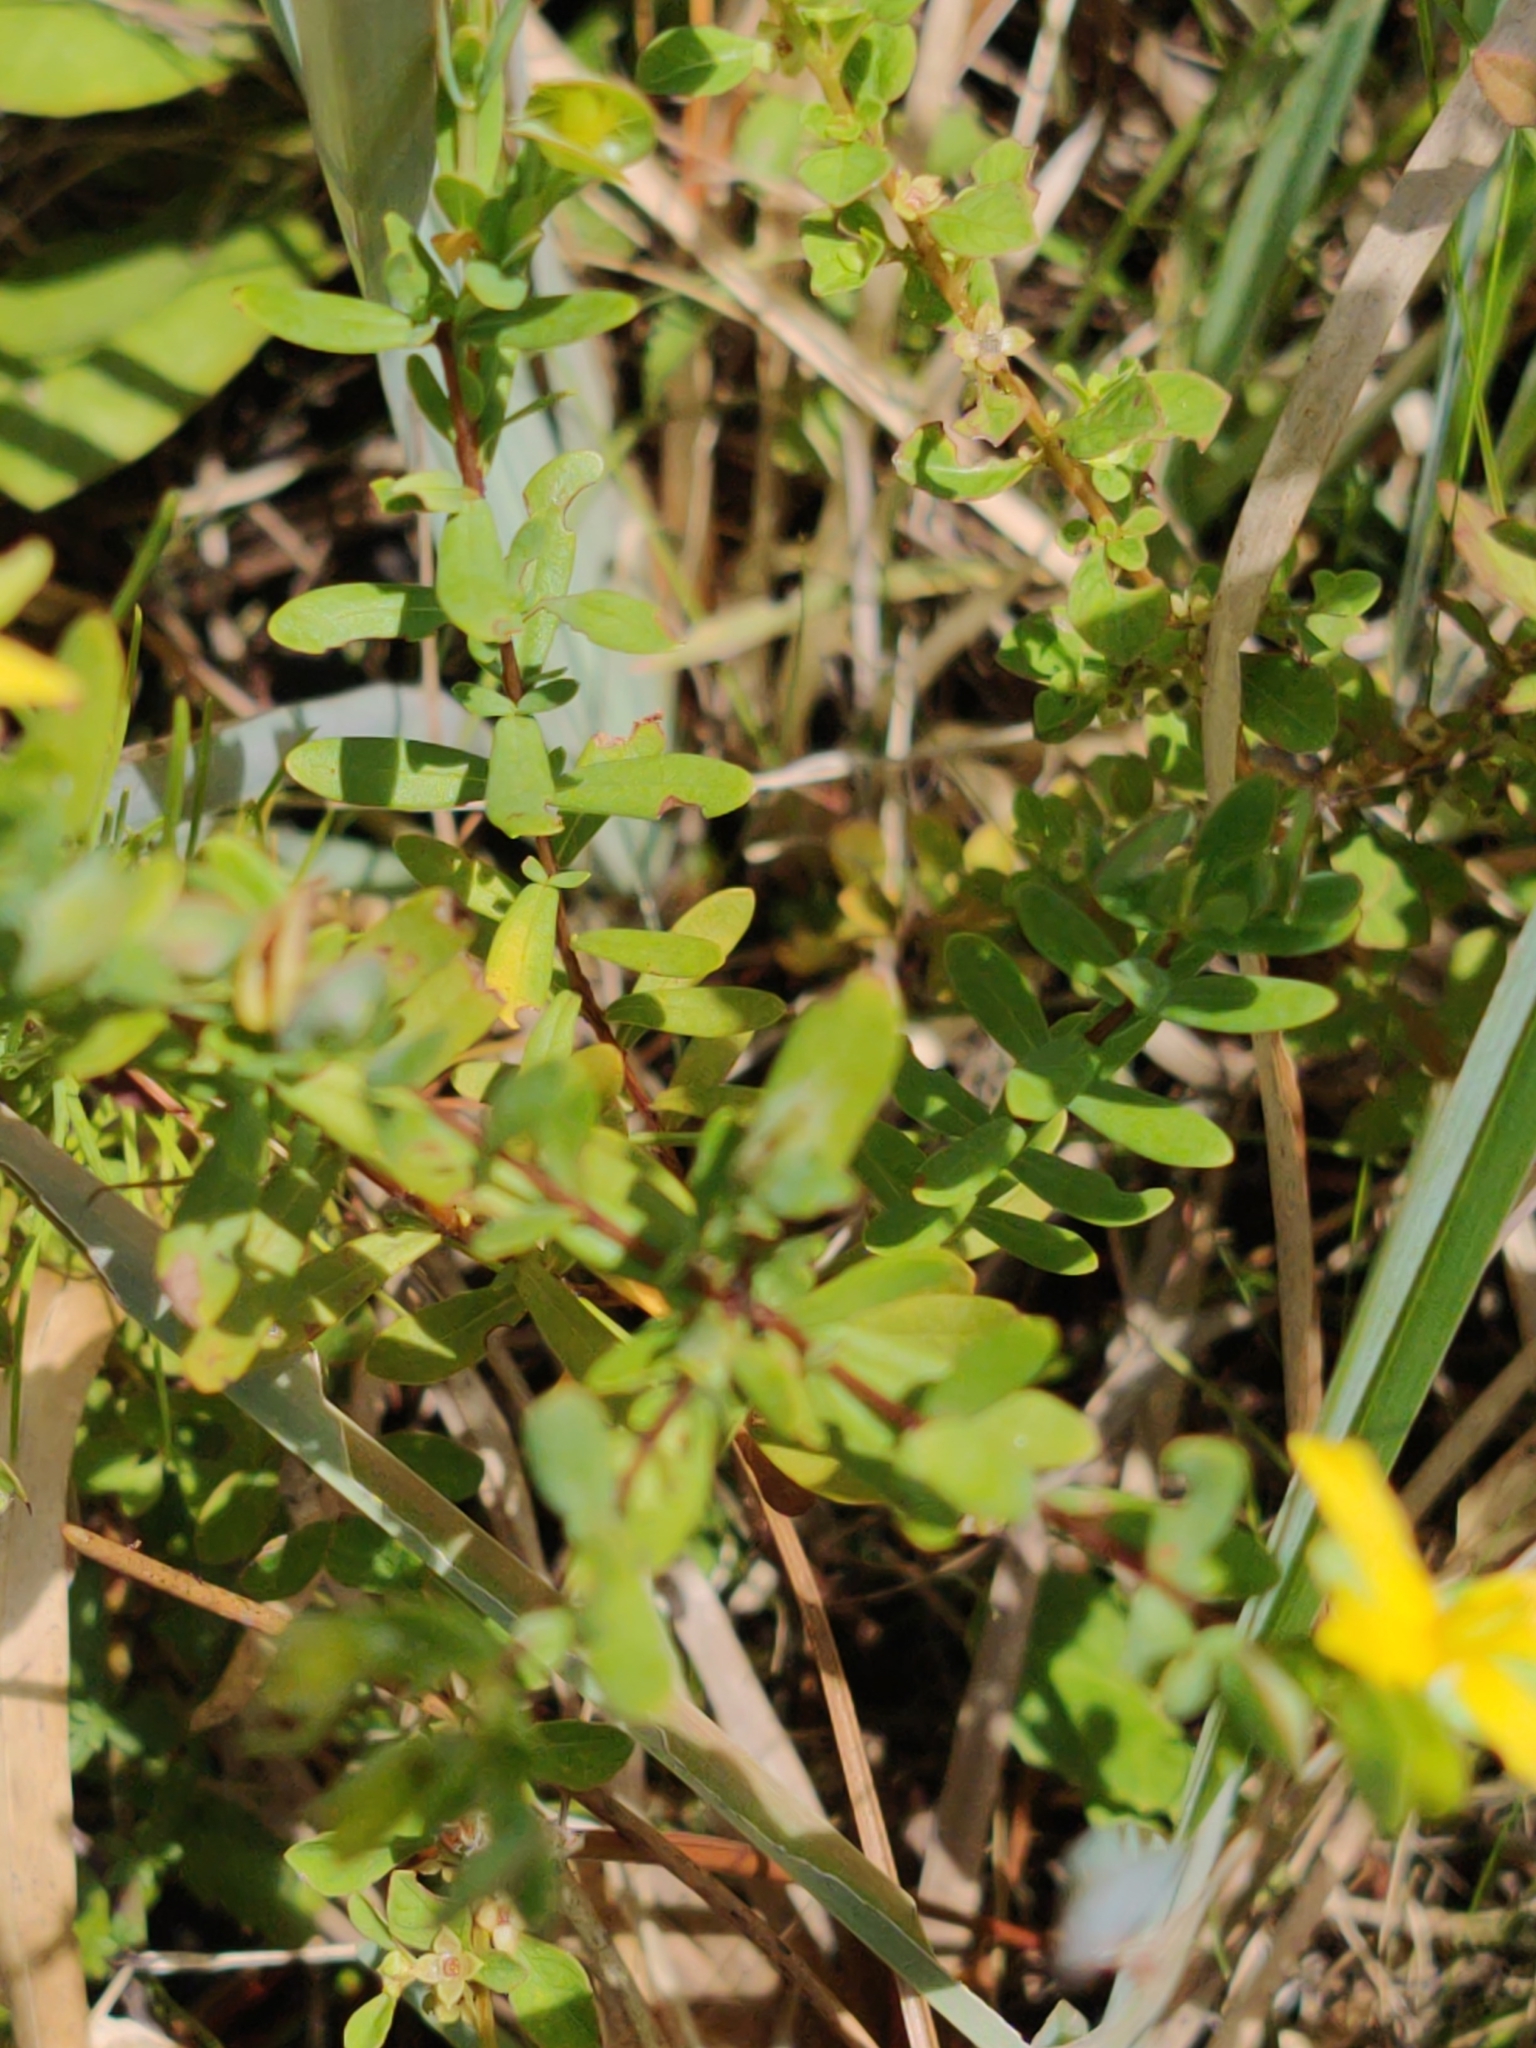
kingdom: Plantae
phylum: Tracheophyta
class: Magnoliopsida
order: Malpighiales
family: Hypericaceae
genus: Hypericum
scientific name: Hypericum hypericoides
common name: St. andrew's cross
